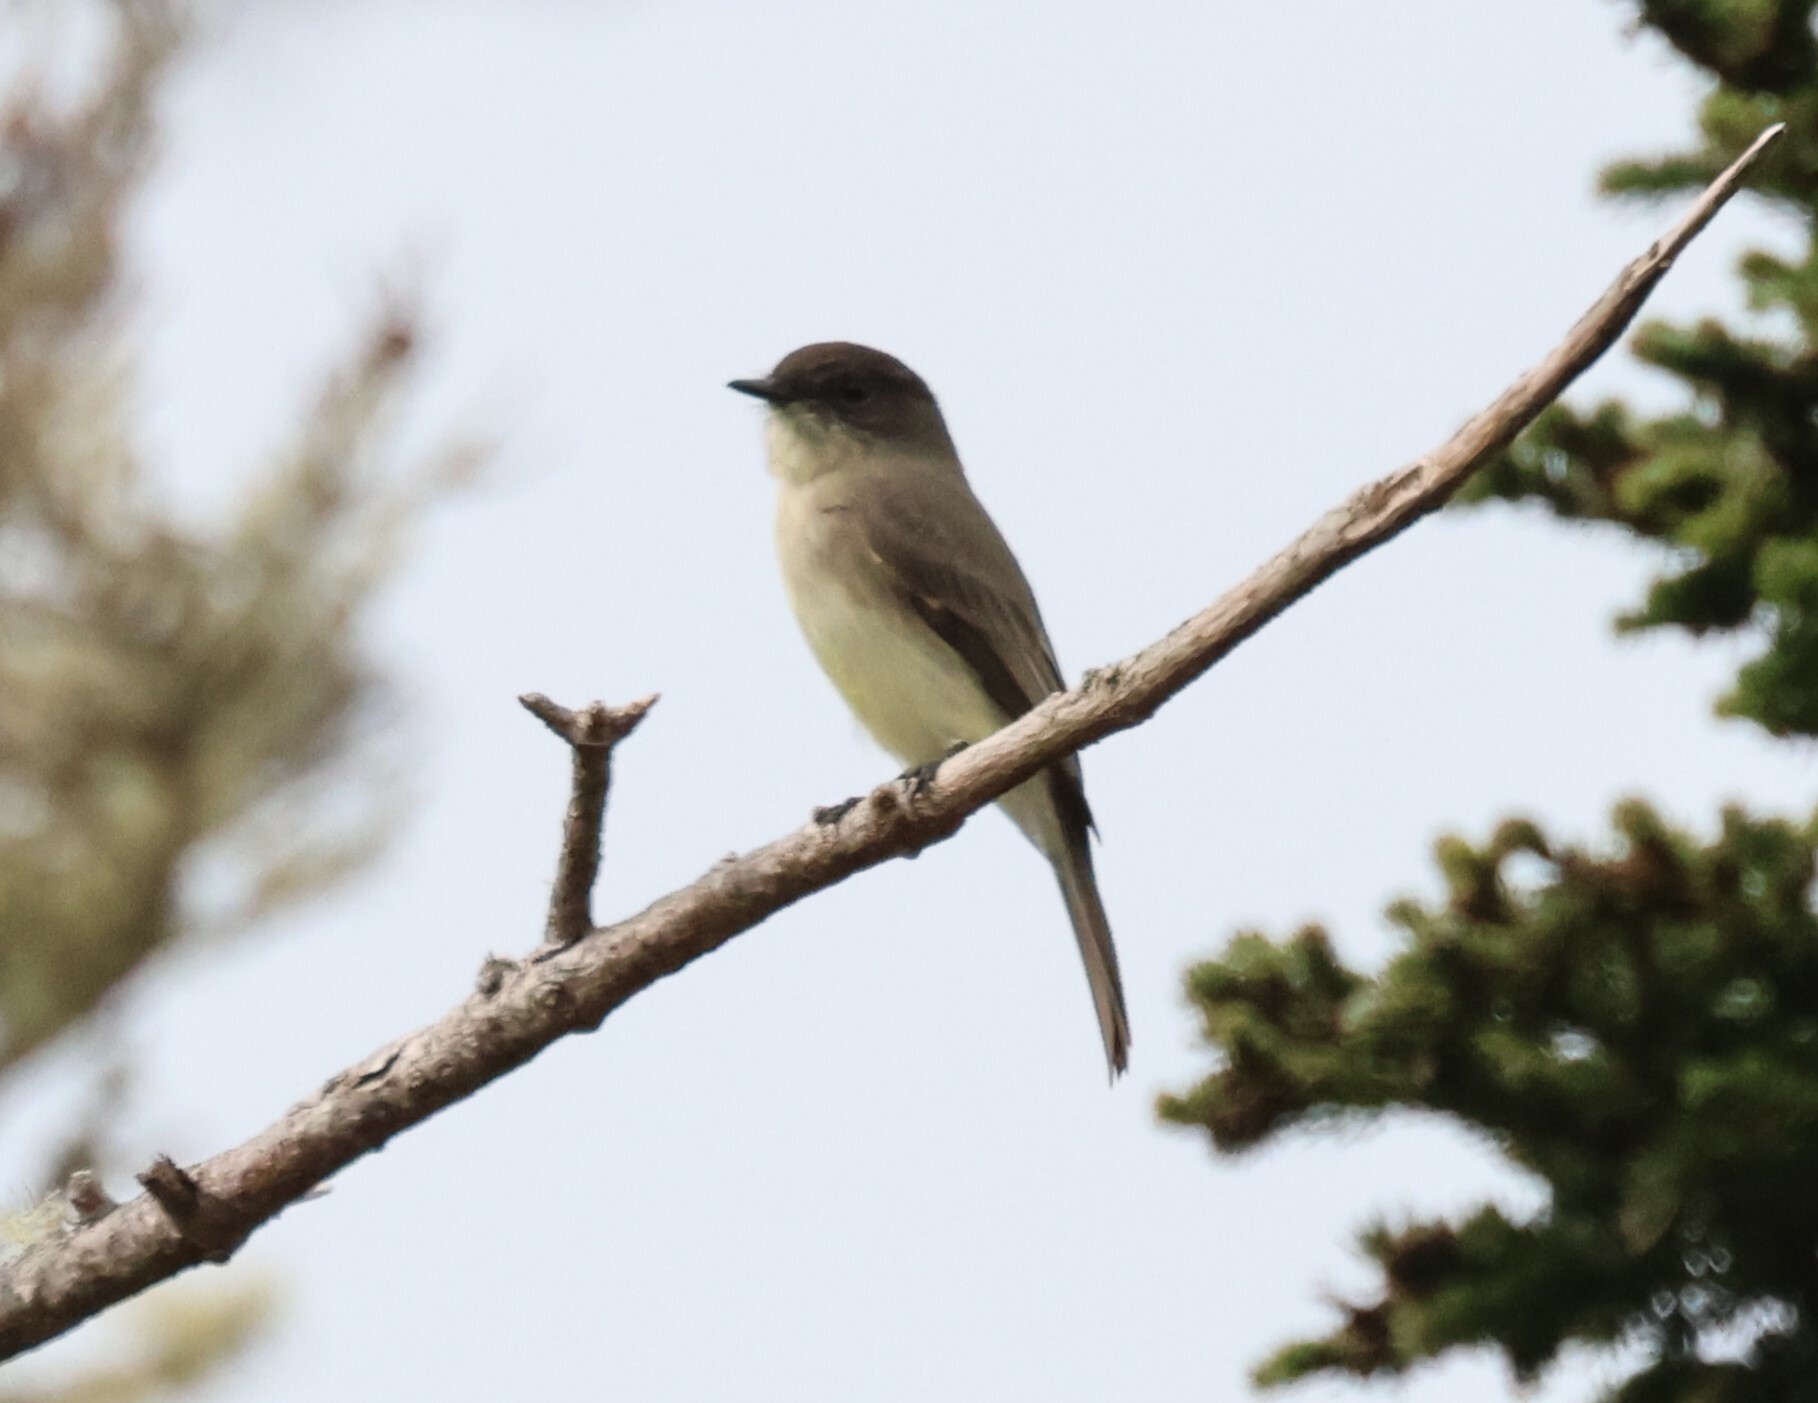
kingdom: Animalia
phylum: Chordata
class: Aves
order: Passeriformes
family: Tyrannidae
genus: Sayornis
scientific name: Sayornis phoebe
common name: Eastern phoebe
